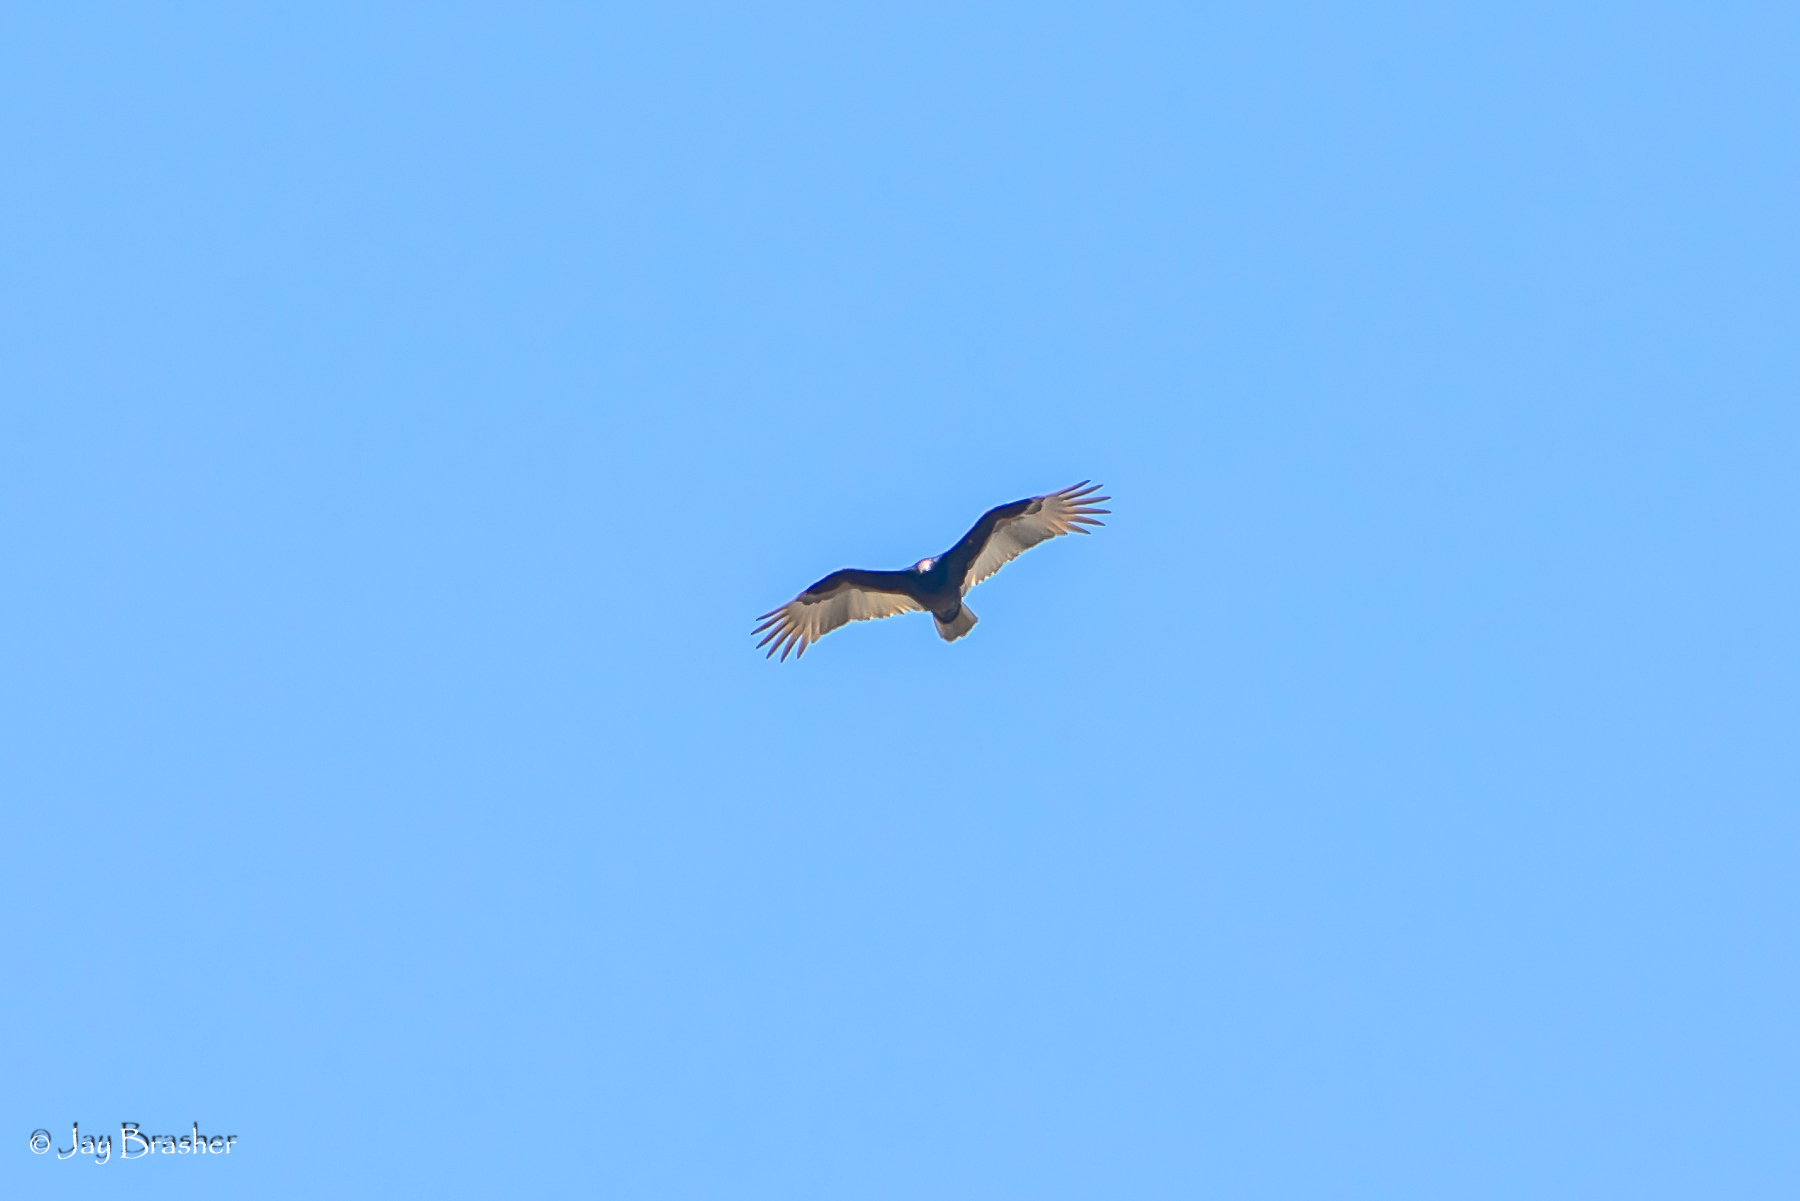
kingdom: Animalia
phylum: Chordata
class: Aves
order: Accipitriformes
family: Cathartidae
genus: Cathartes
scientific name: Cathartes aura
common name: Turkey vulture
